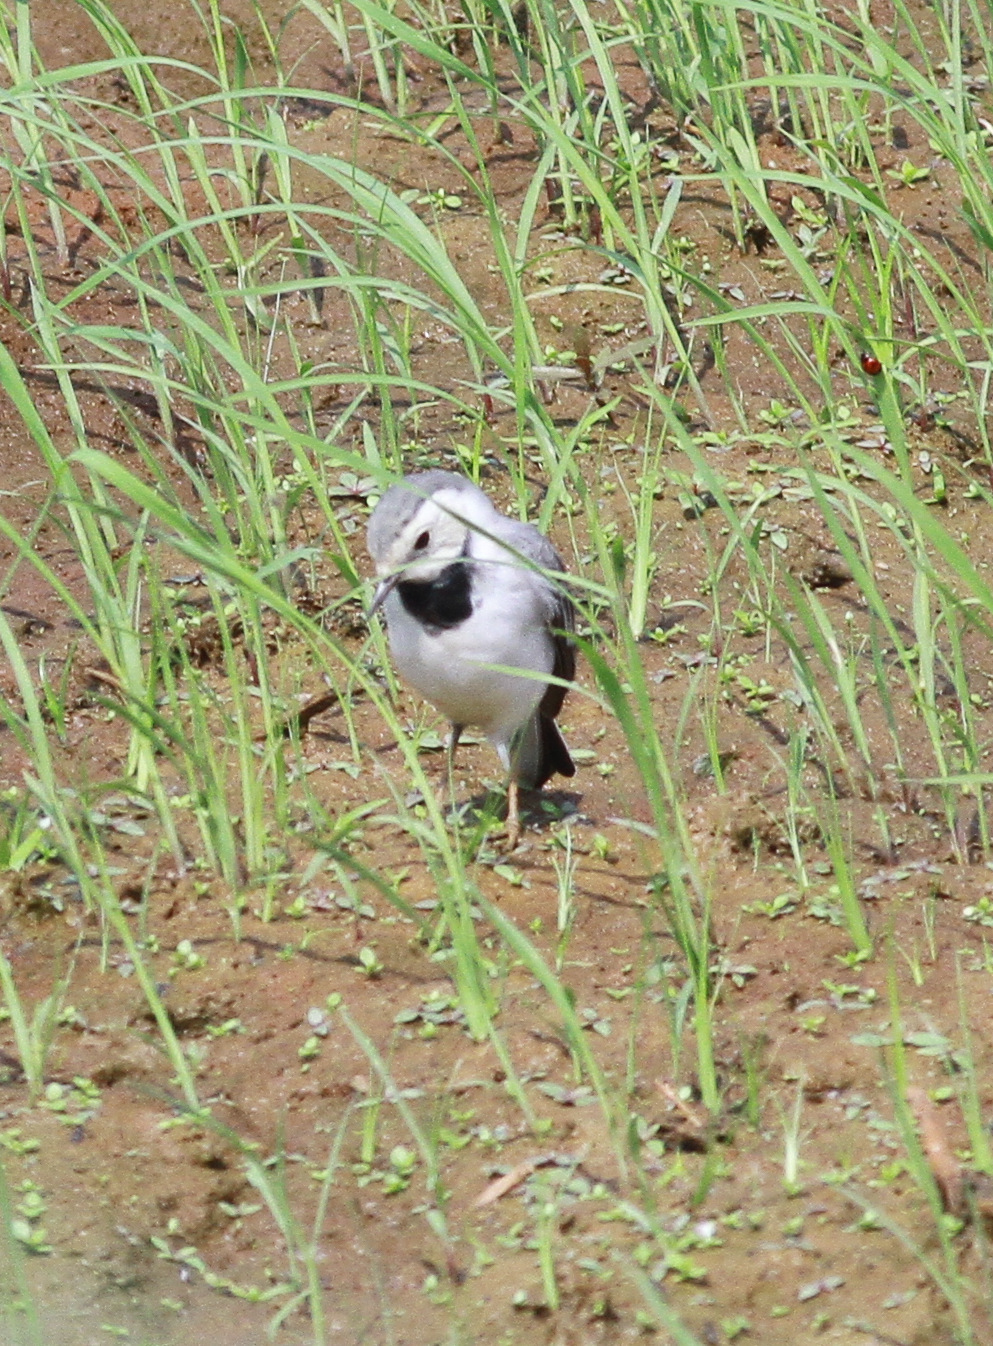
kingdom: Animalia
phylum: Chordata
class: Aves
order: Passeriformes
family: Motacillidae
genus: Motacilla
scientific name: Motacilla alba
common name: White wagtail
